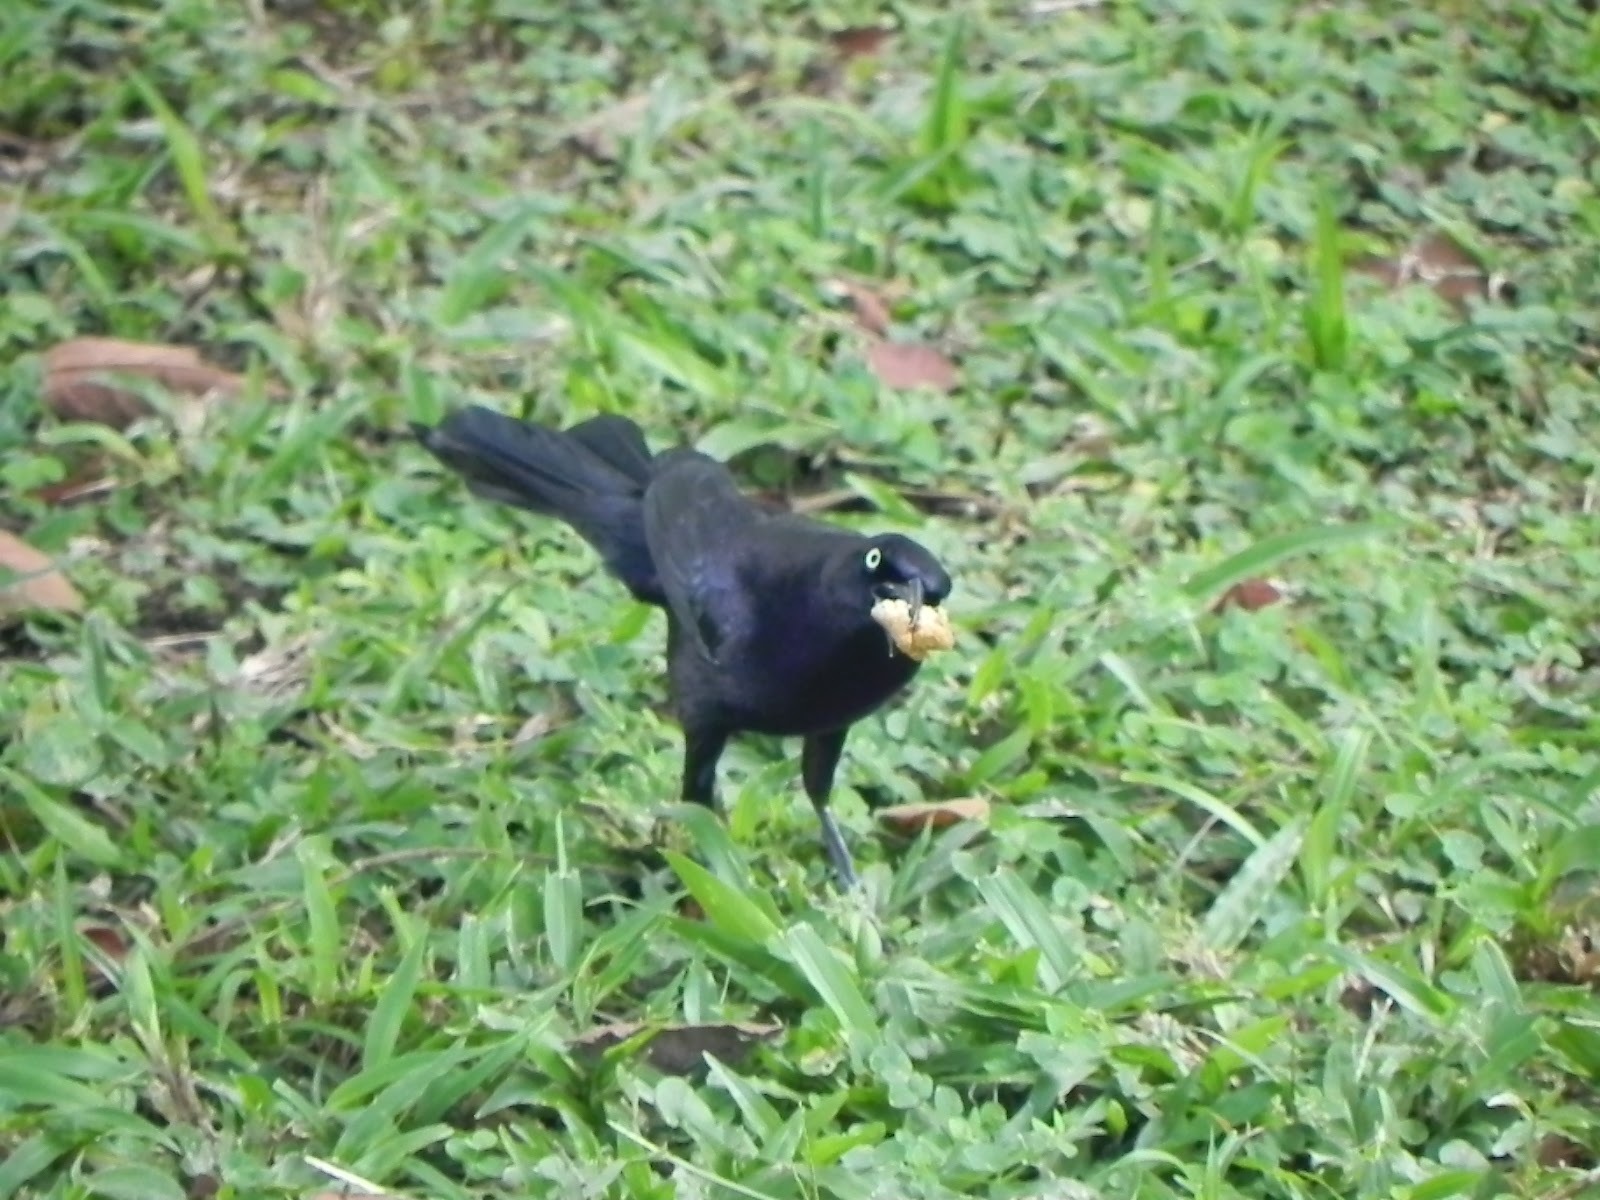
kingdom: Animalia
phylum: Chordata
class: Aves
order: Passeriformes
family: Icteridae
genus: Quiscalus
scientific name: Quiscalus lugubris
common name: Carib grackle
